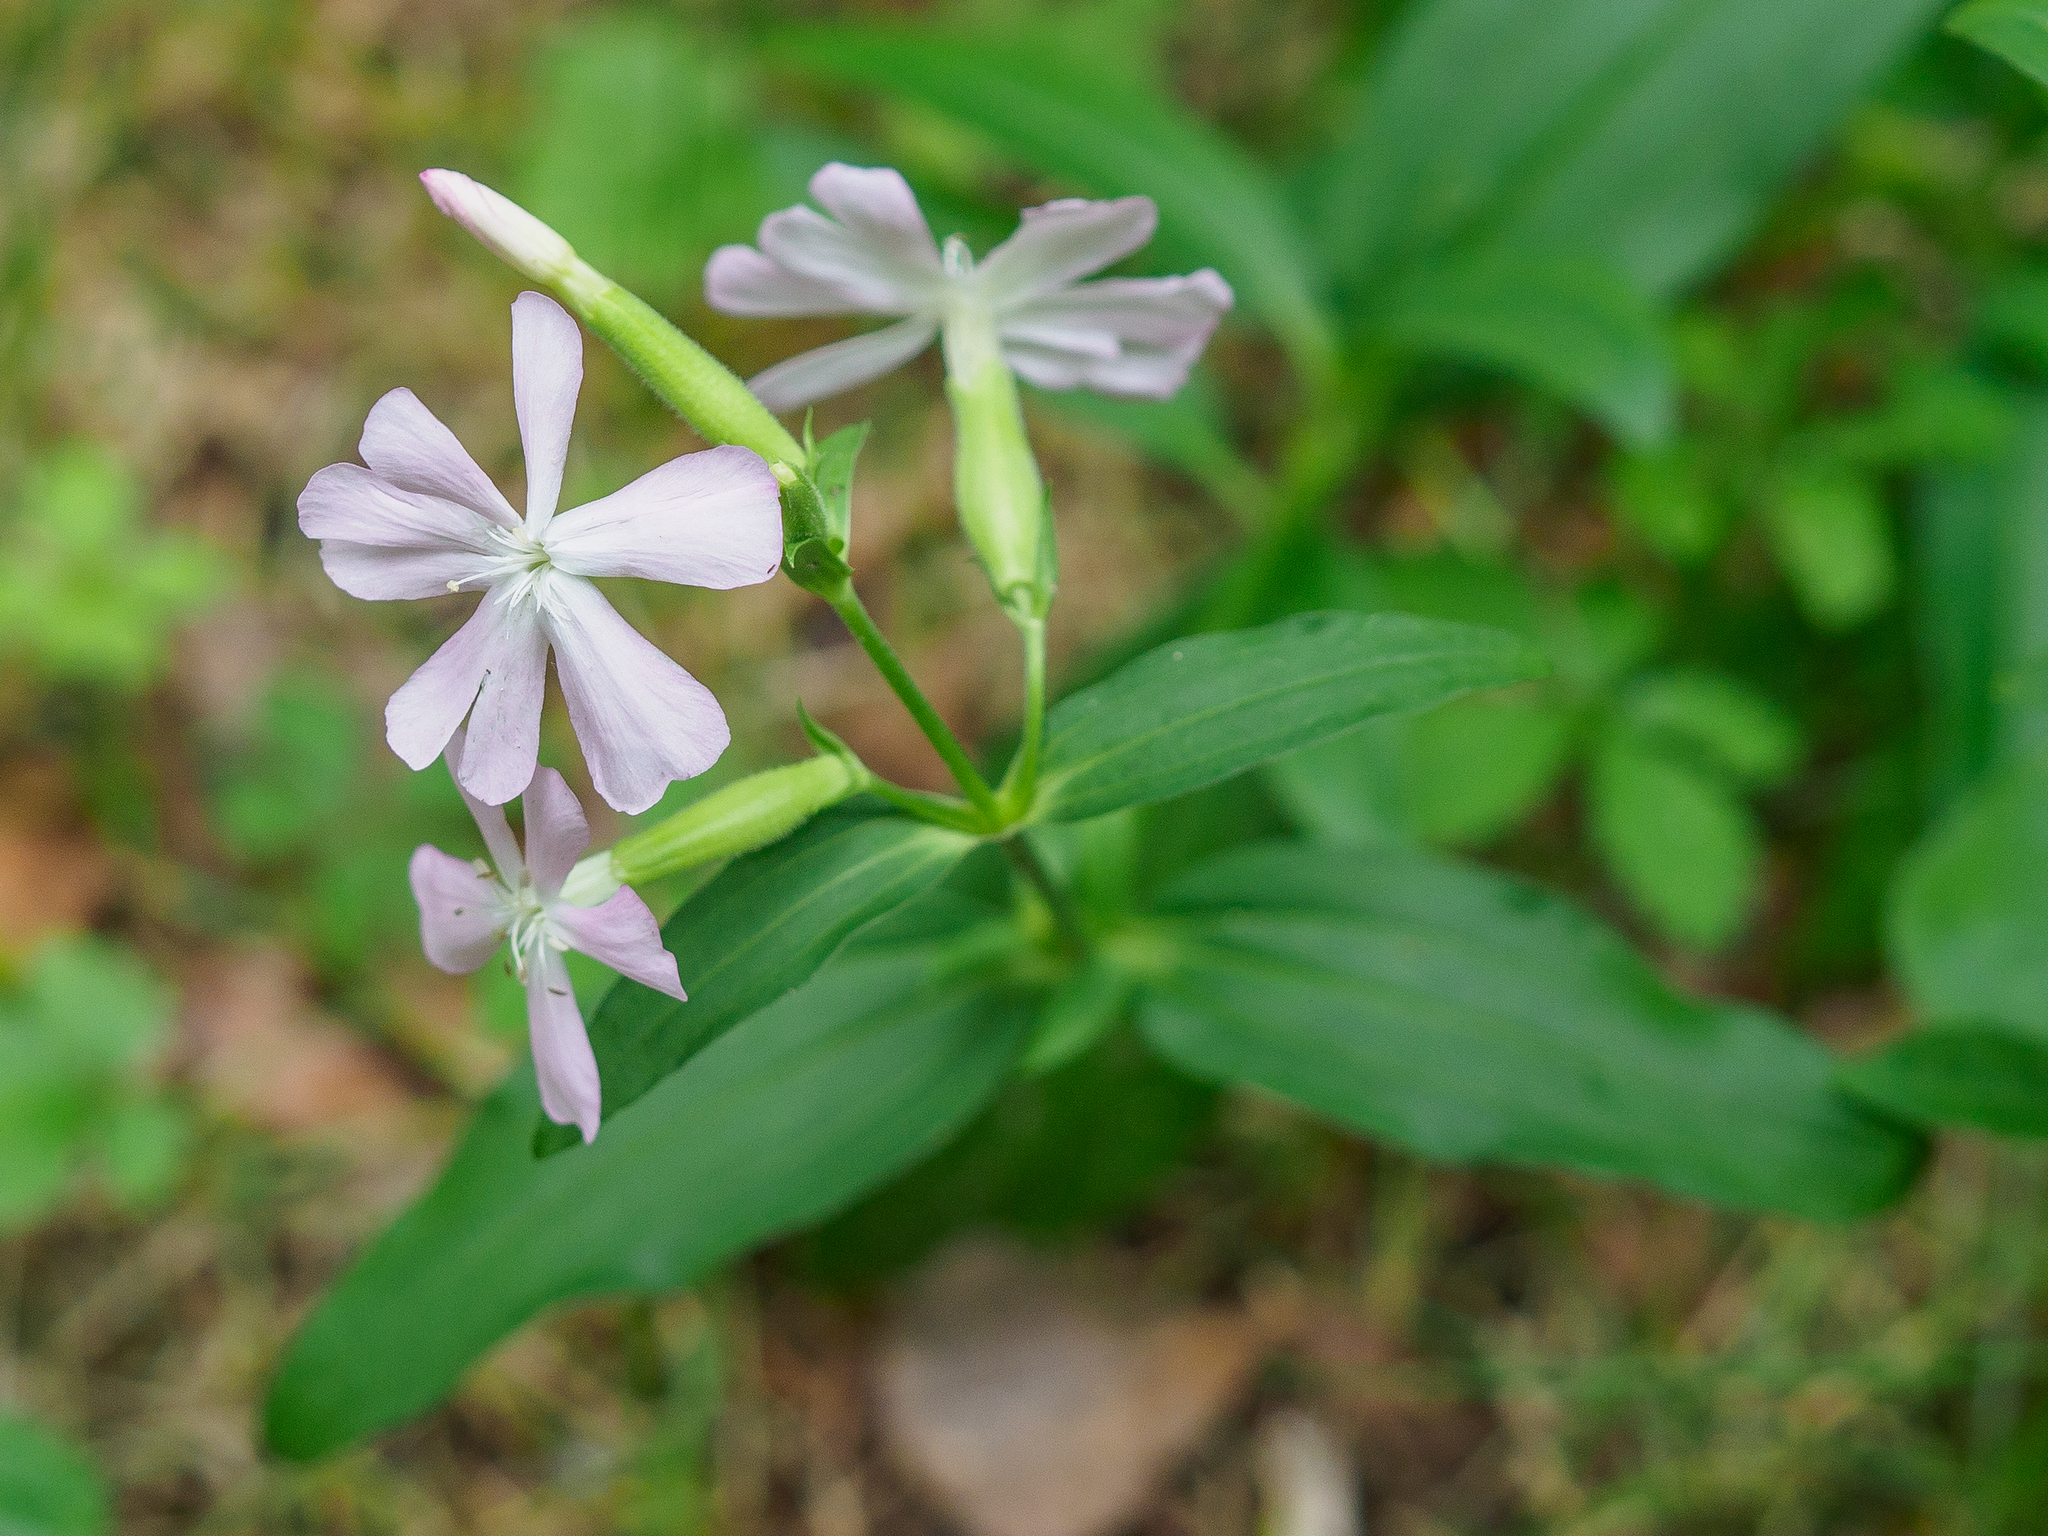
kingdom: Plantae
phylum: Tracheophyta
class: Magnoliopsida
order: Caryophyllales
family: Caryophyllaceae
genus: Saponaria
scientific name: Saponaria officinalis
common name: Soapwort
